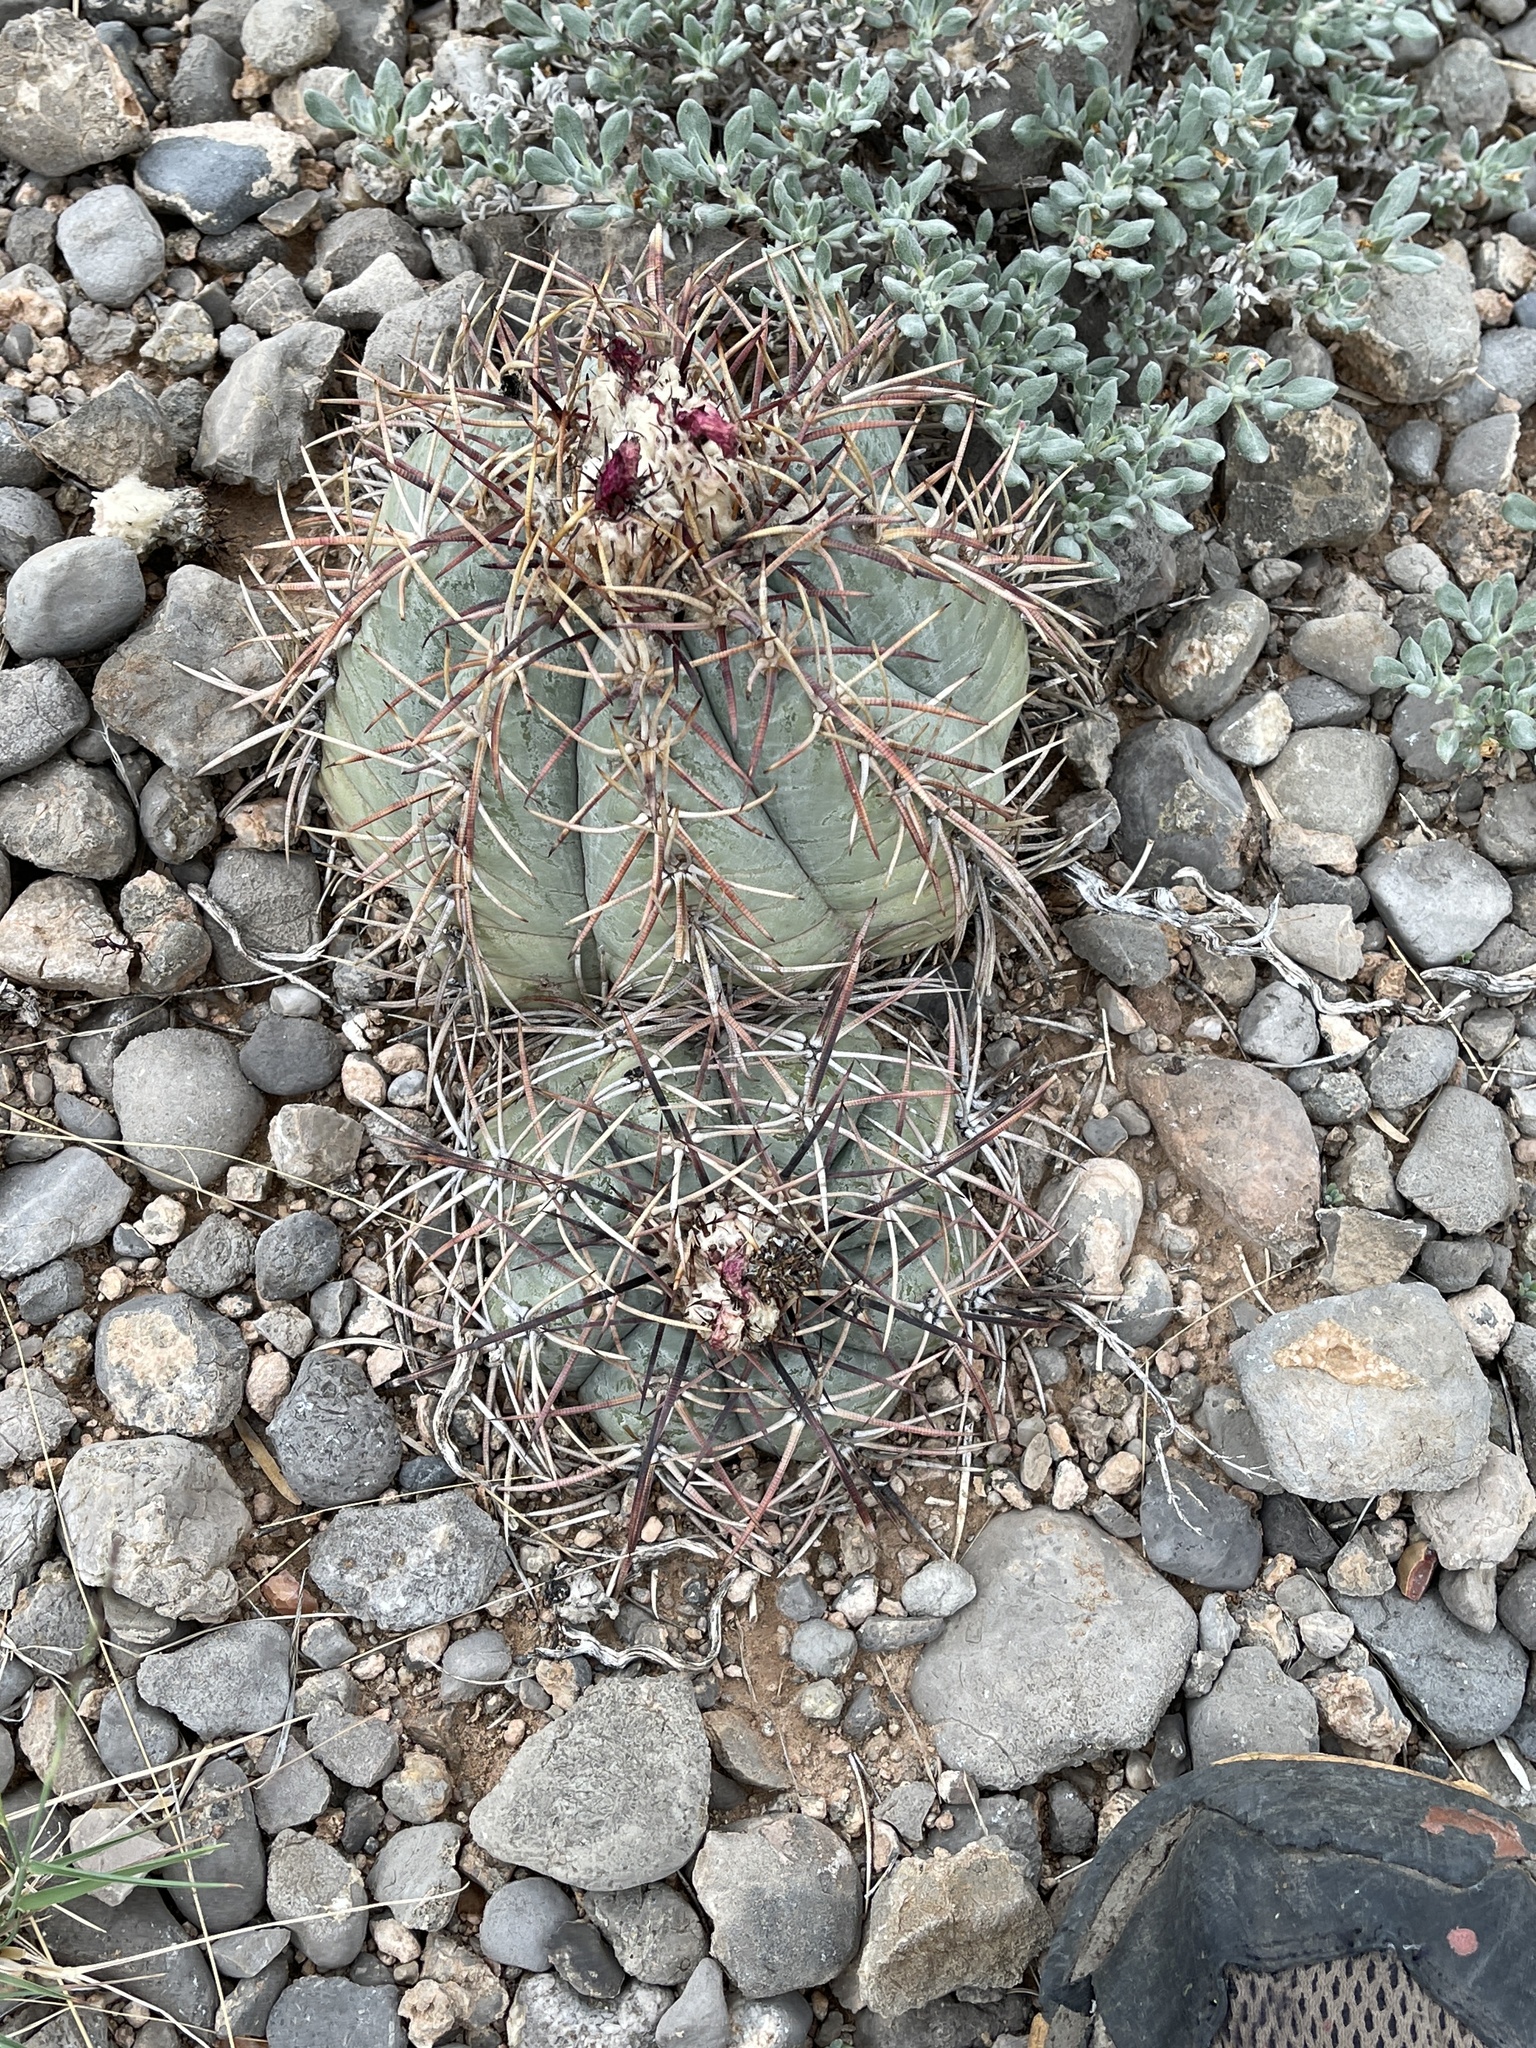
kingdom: Plantae
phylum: Tracheophyta
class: Magnoliopsida
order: Caryophyllales
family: Cactaceae
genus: Echinocactus
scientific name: Echinocactus horizonthalonius
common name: Devilshead
